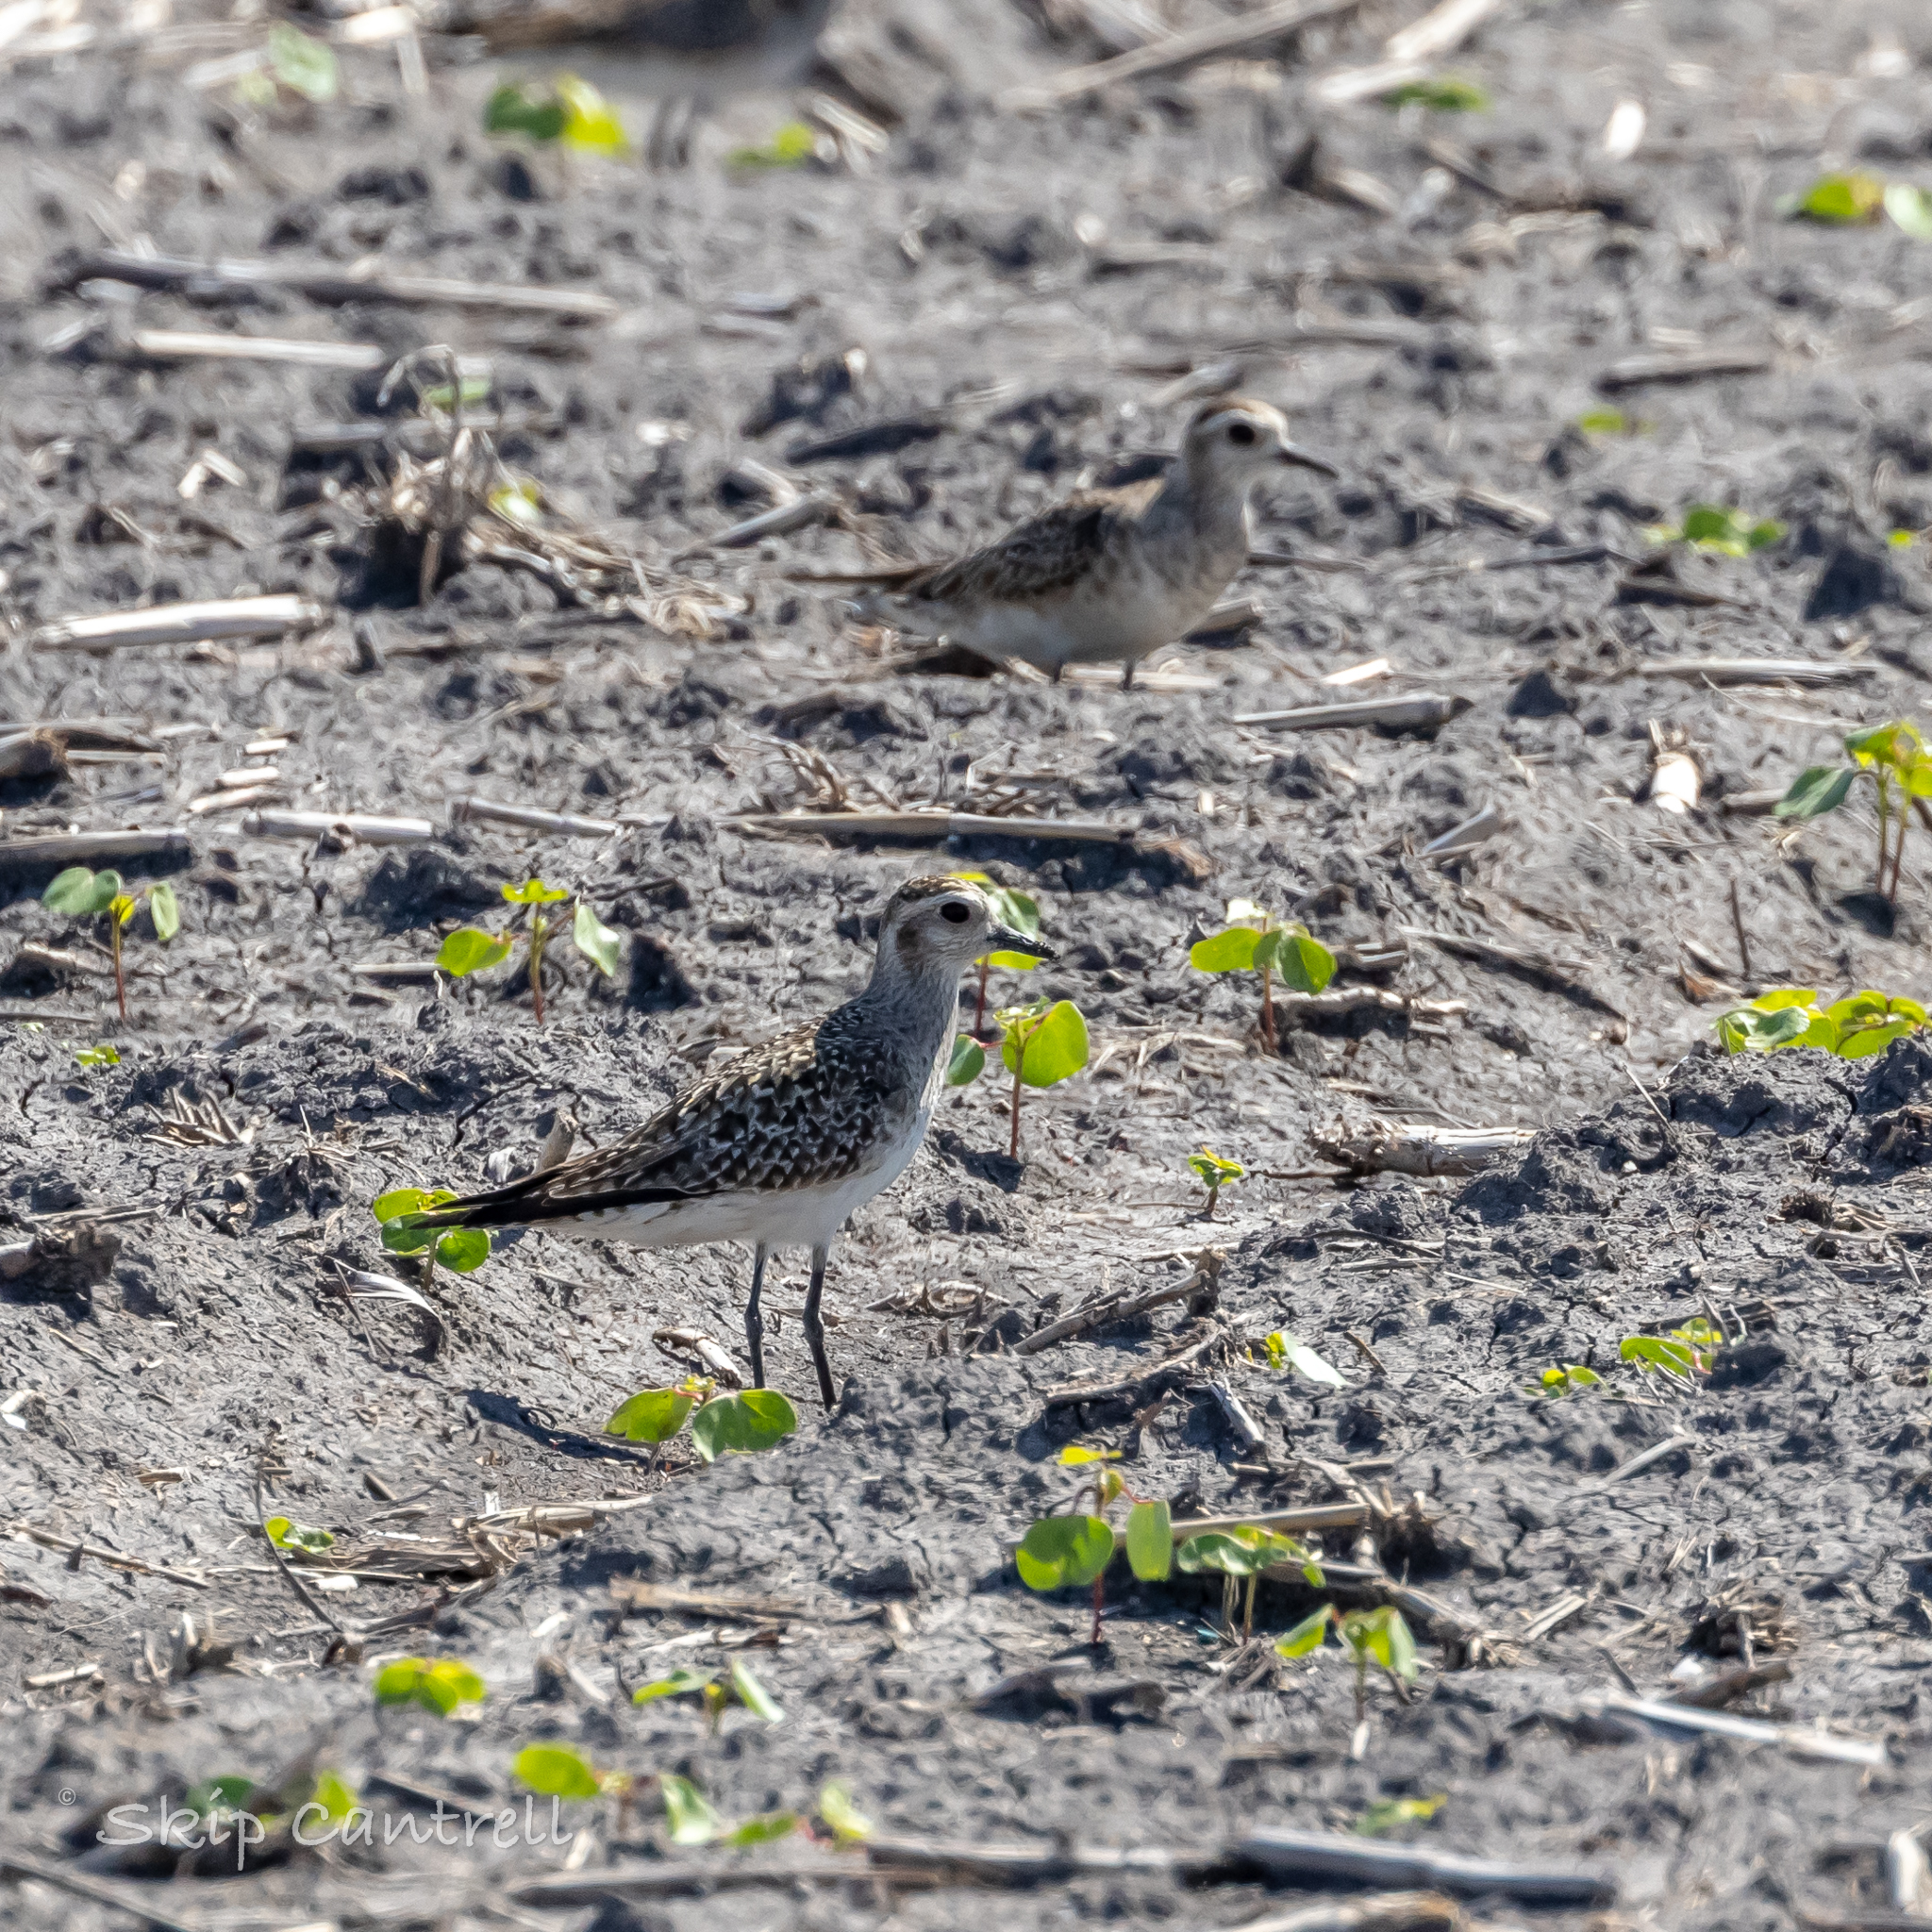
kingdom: Animalia
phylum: Chordata
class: Aves
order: Charadriiformes
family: Charadriidae
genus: Pluvialis
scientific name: Pluvialis dominica
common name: American golden plover
